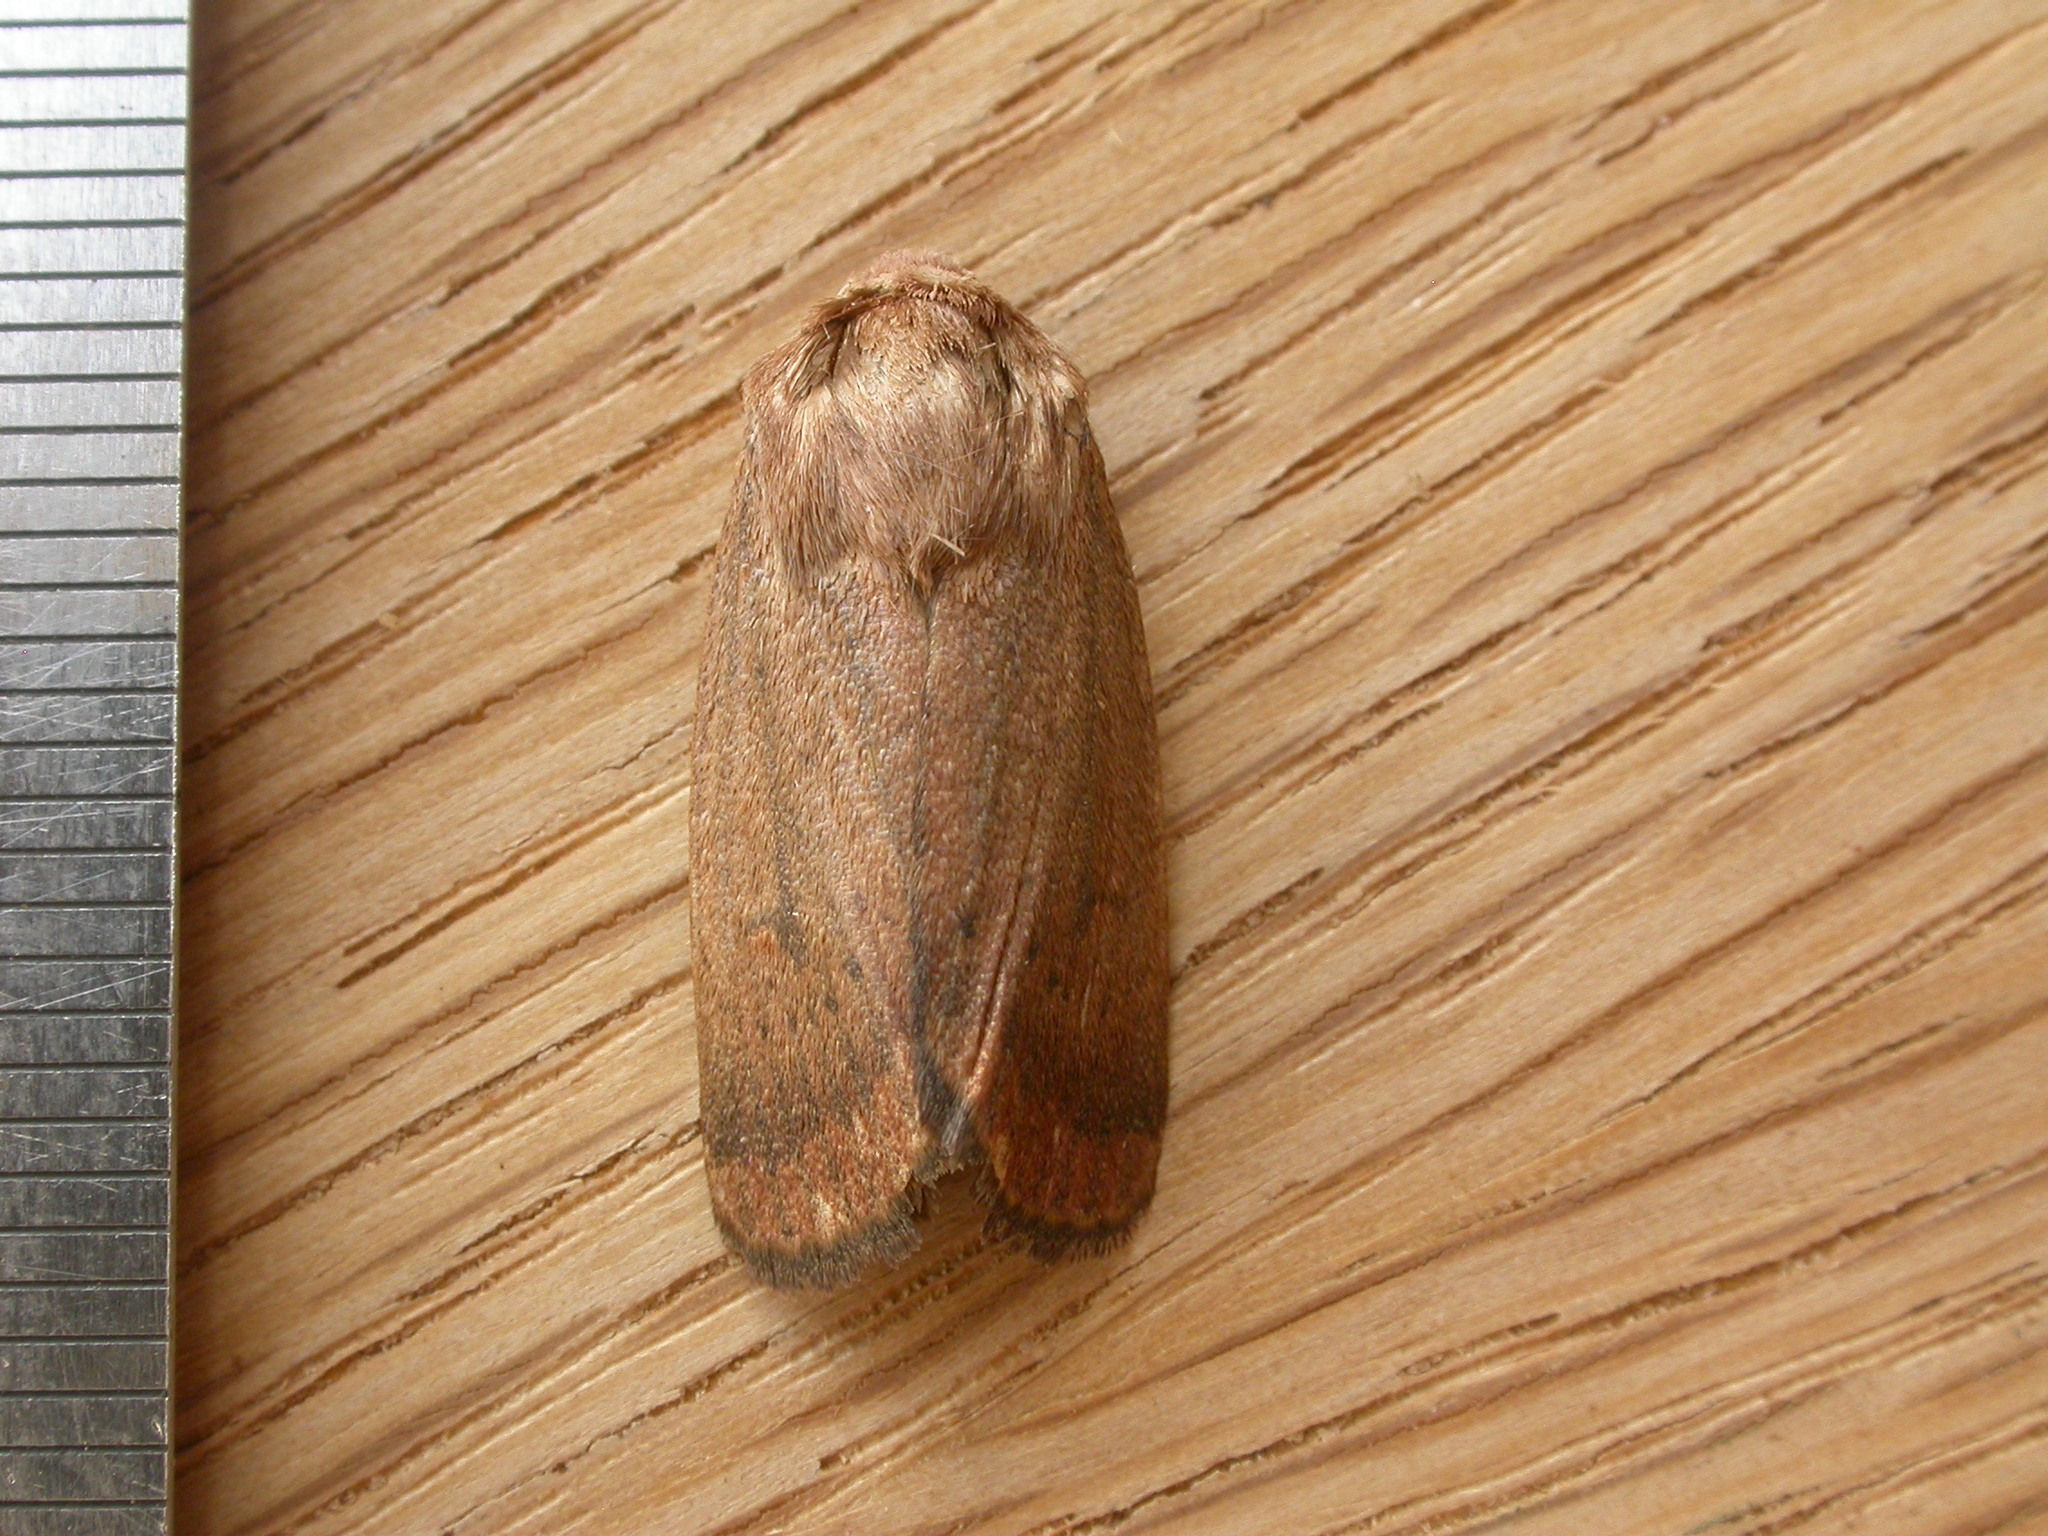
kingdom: Animalia
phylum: Arthropoda
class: Insecta
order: Lepidoptera
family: Noctuidae
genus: Proteuxoa
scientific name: Proteuxoa porphyrescens
